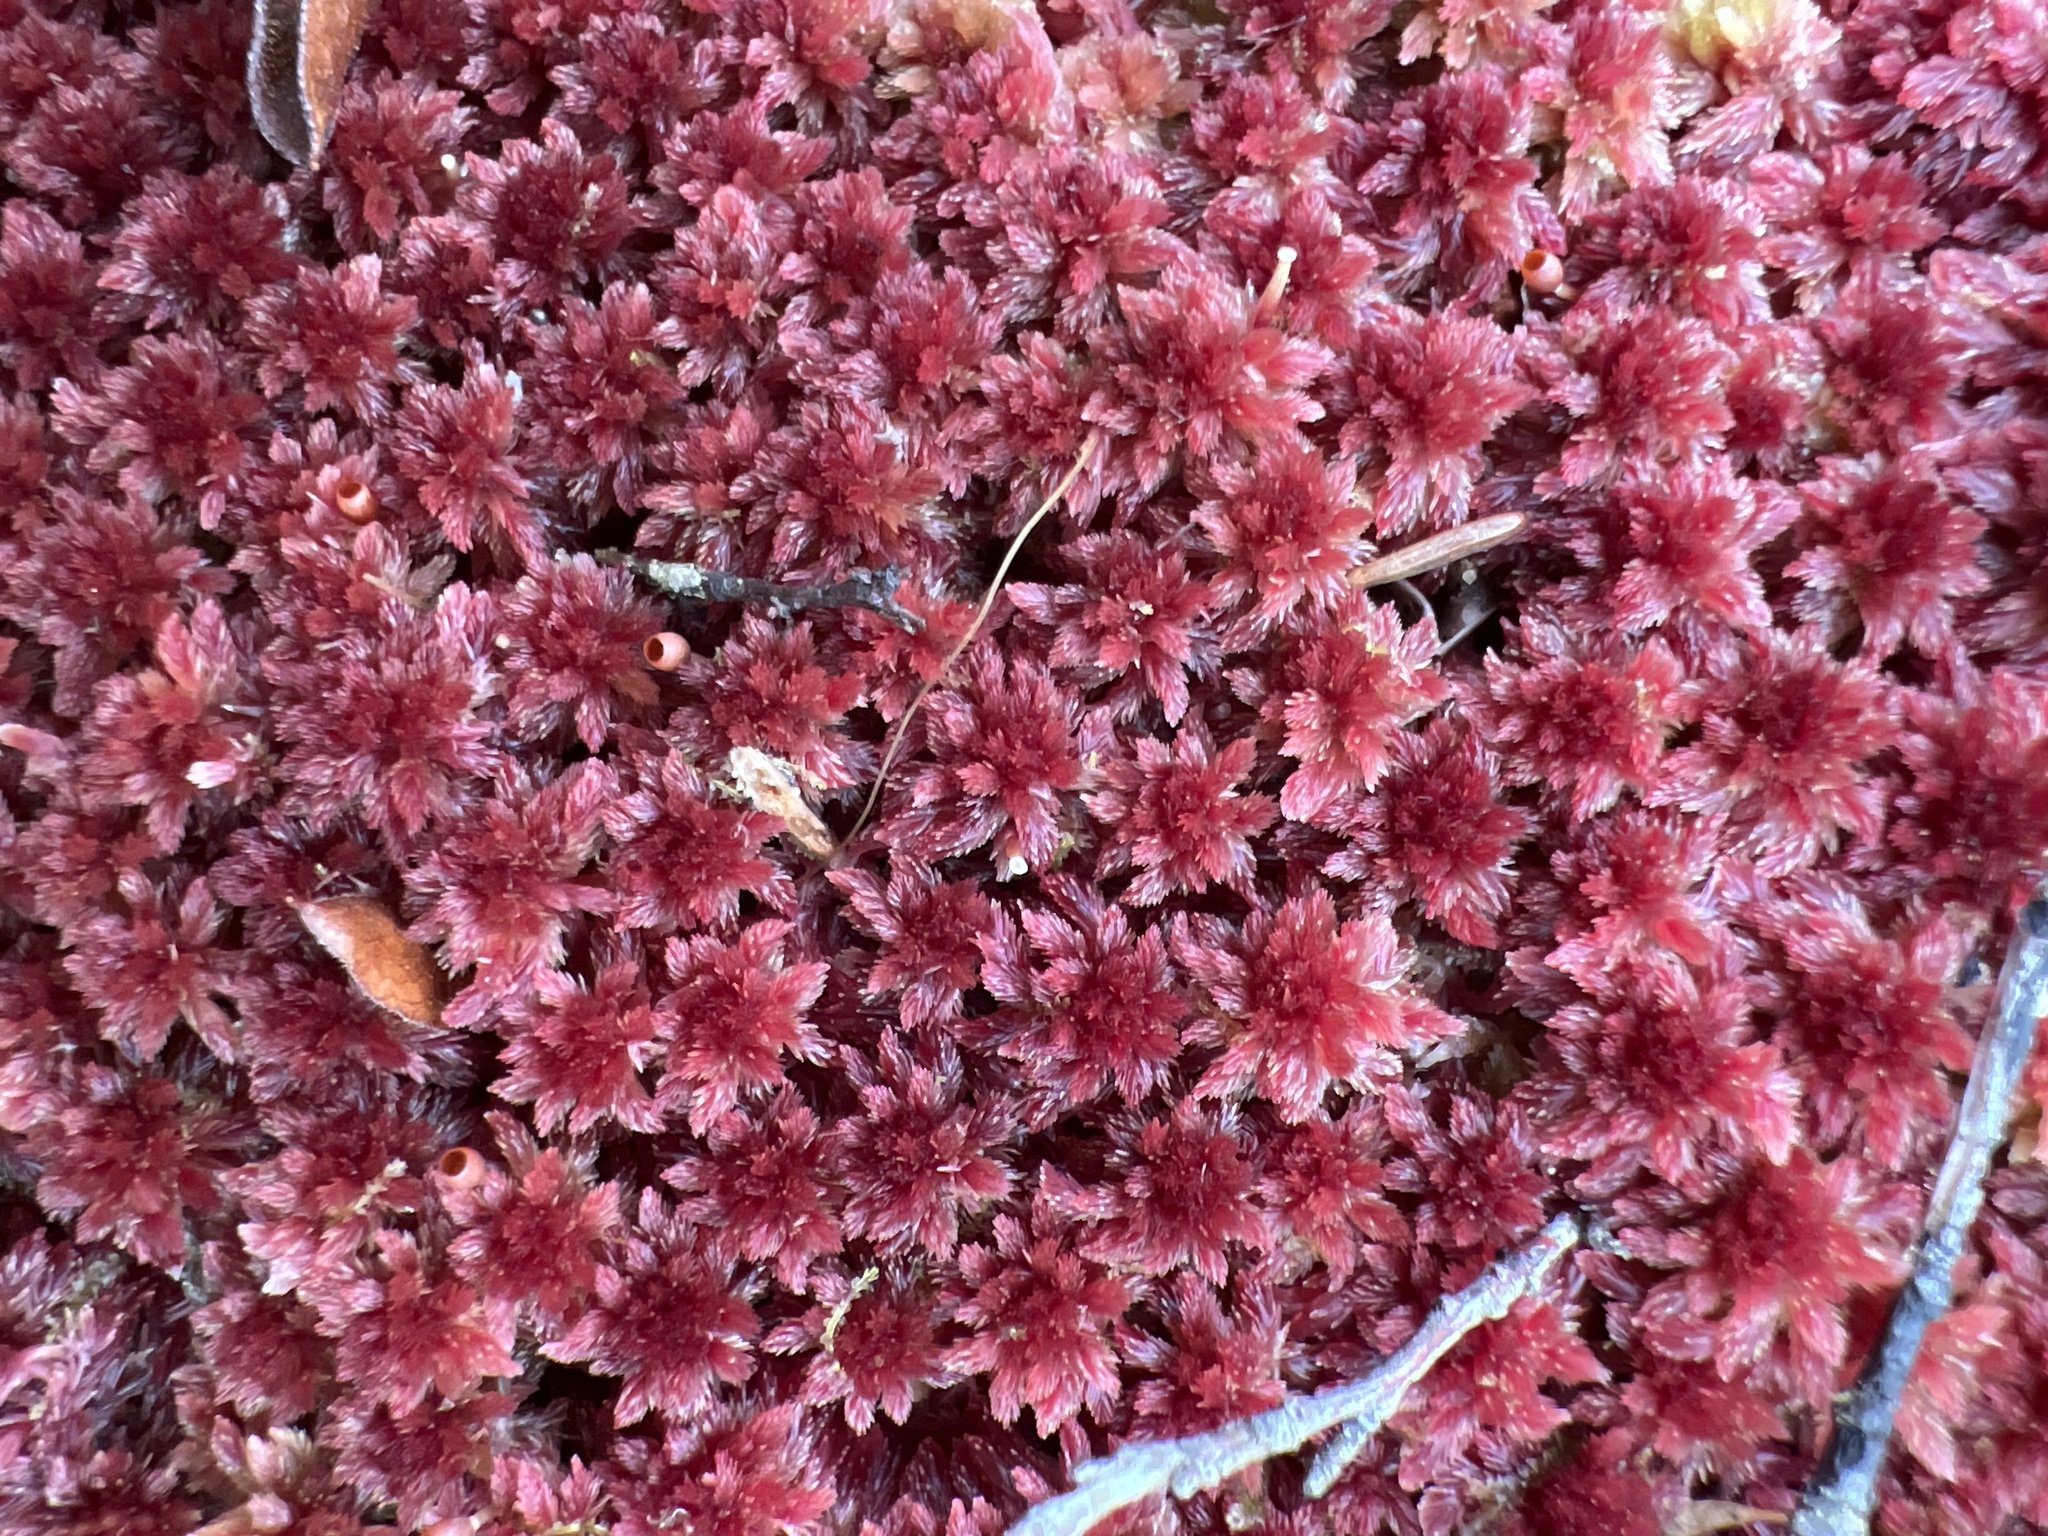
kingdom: Plantae
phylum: Bryophyta
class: Sphagnopsida
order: Sphagnales
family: Sphagnaceae
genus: Sphagnum
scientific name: Sphagnum rubellum
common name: Red peat moss
